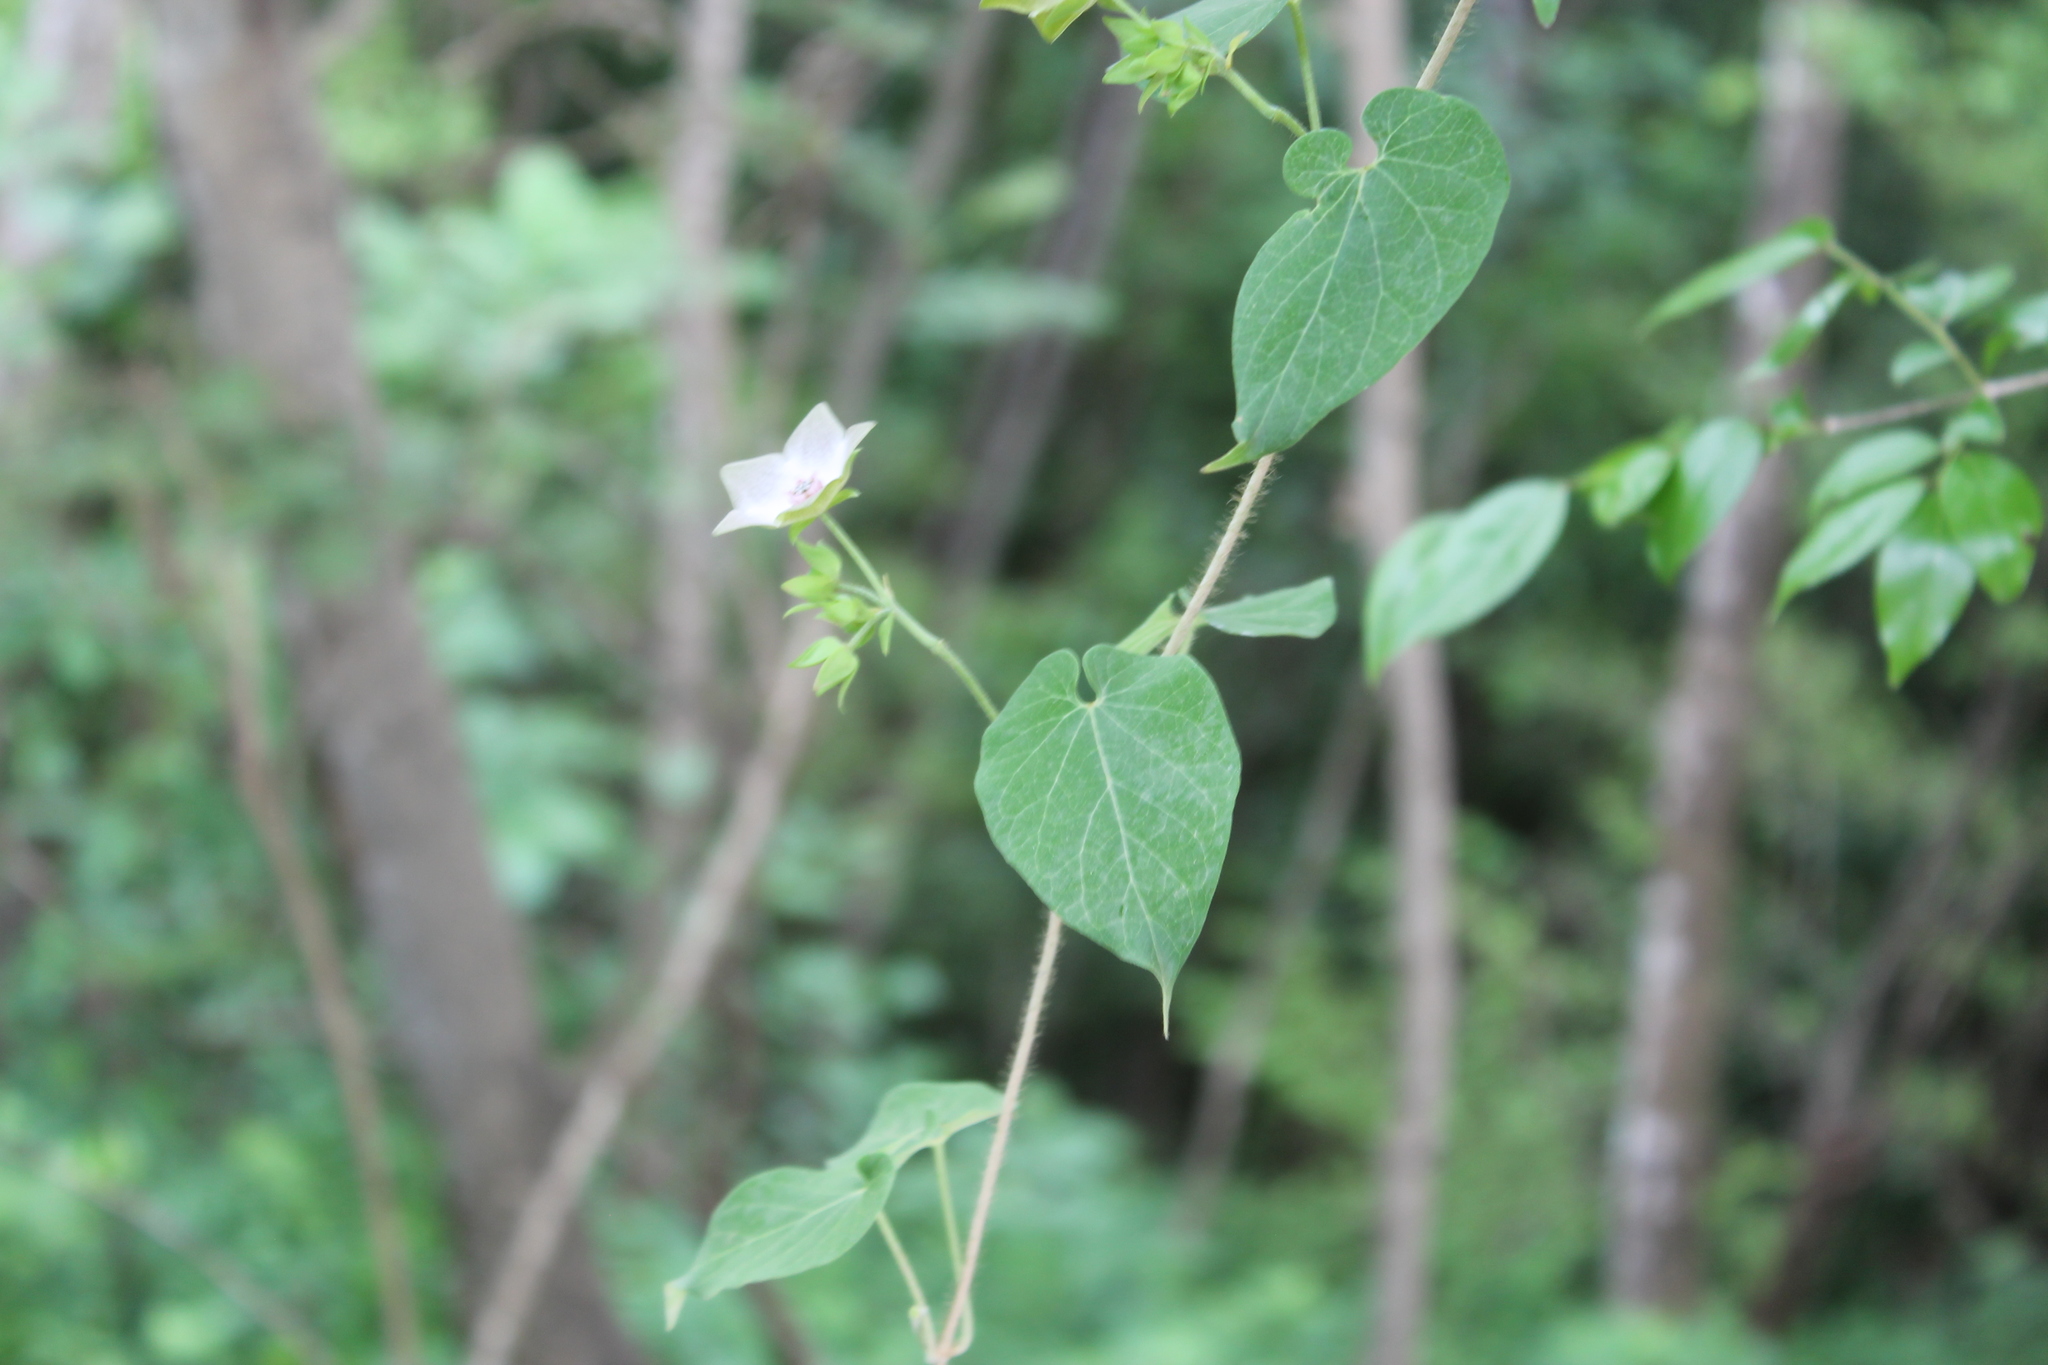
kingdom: Plantae
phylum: Tracheophyta
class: Magnoliopsida
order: Gentianales
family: Apocynaceae
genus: Polystemma
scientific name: Polystemma guatemalense
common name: Arborescente rattan
